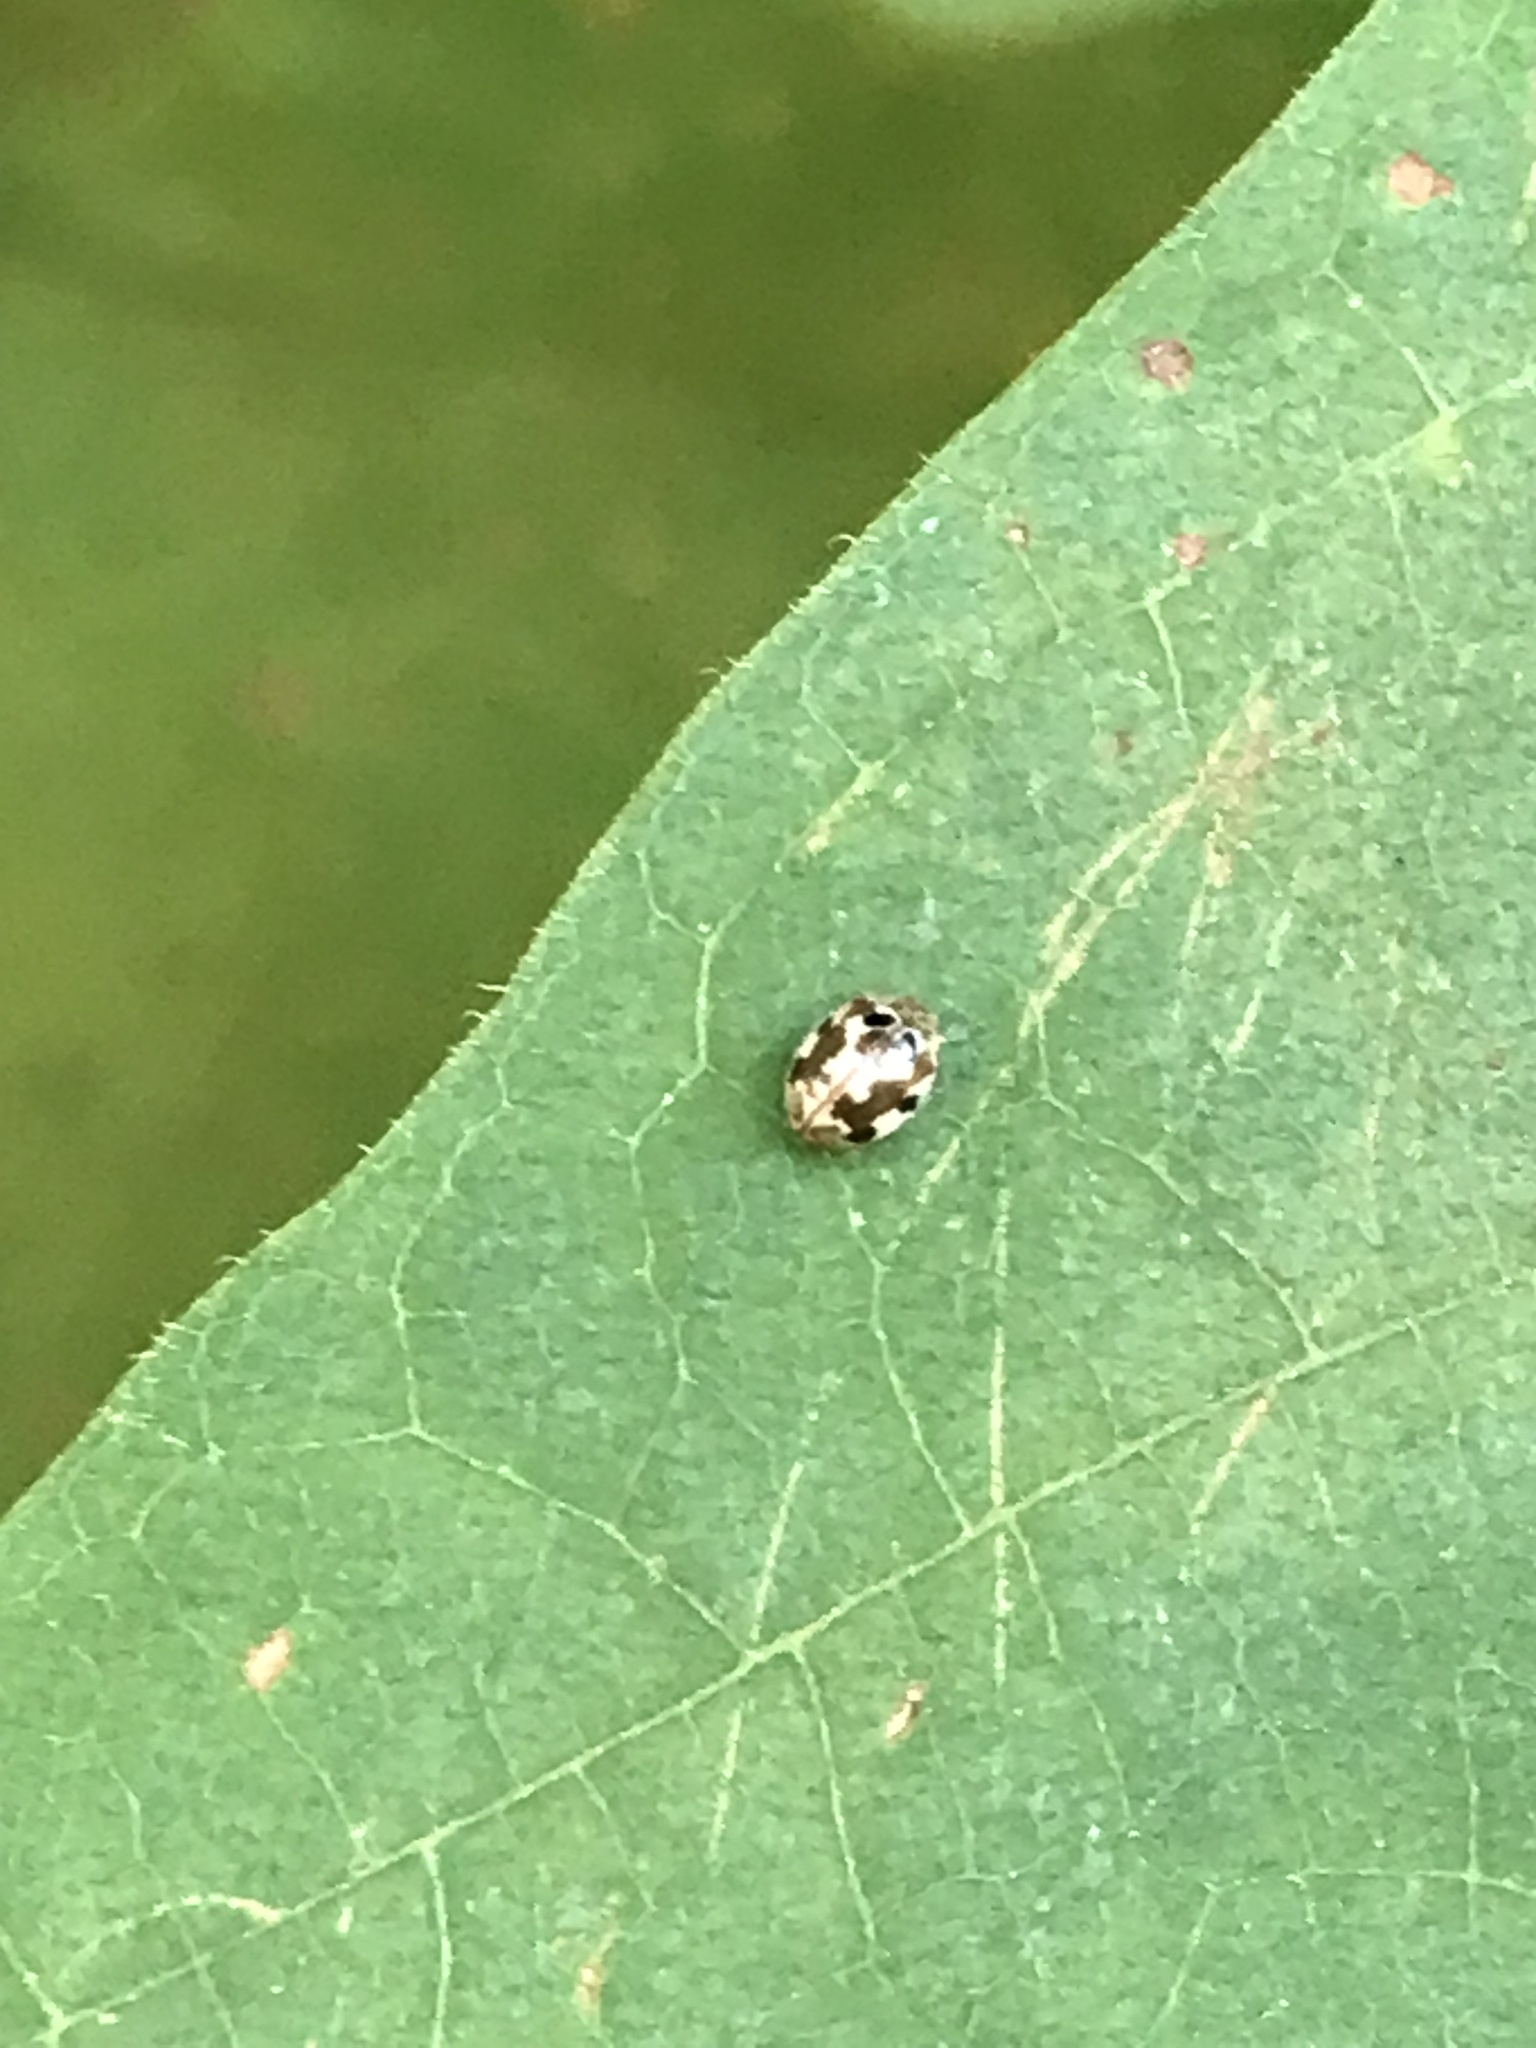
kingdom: Animalia
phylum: Arthropoda
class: Insecta
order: Coleoptera
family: Coccinellidae
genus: Psyllobora
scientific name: Psyllobora vigintimaculata
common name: Ladybird beetle
